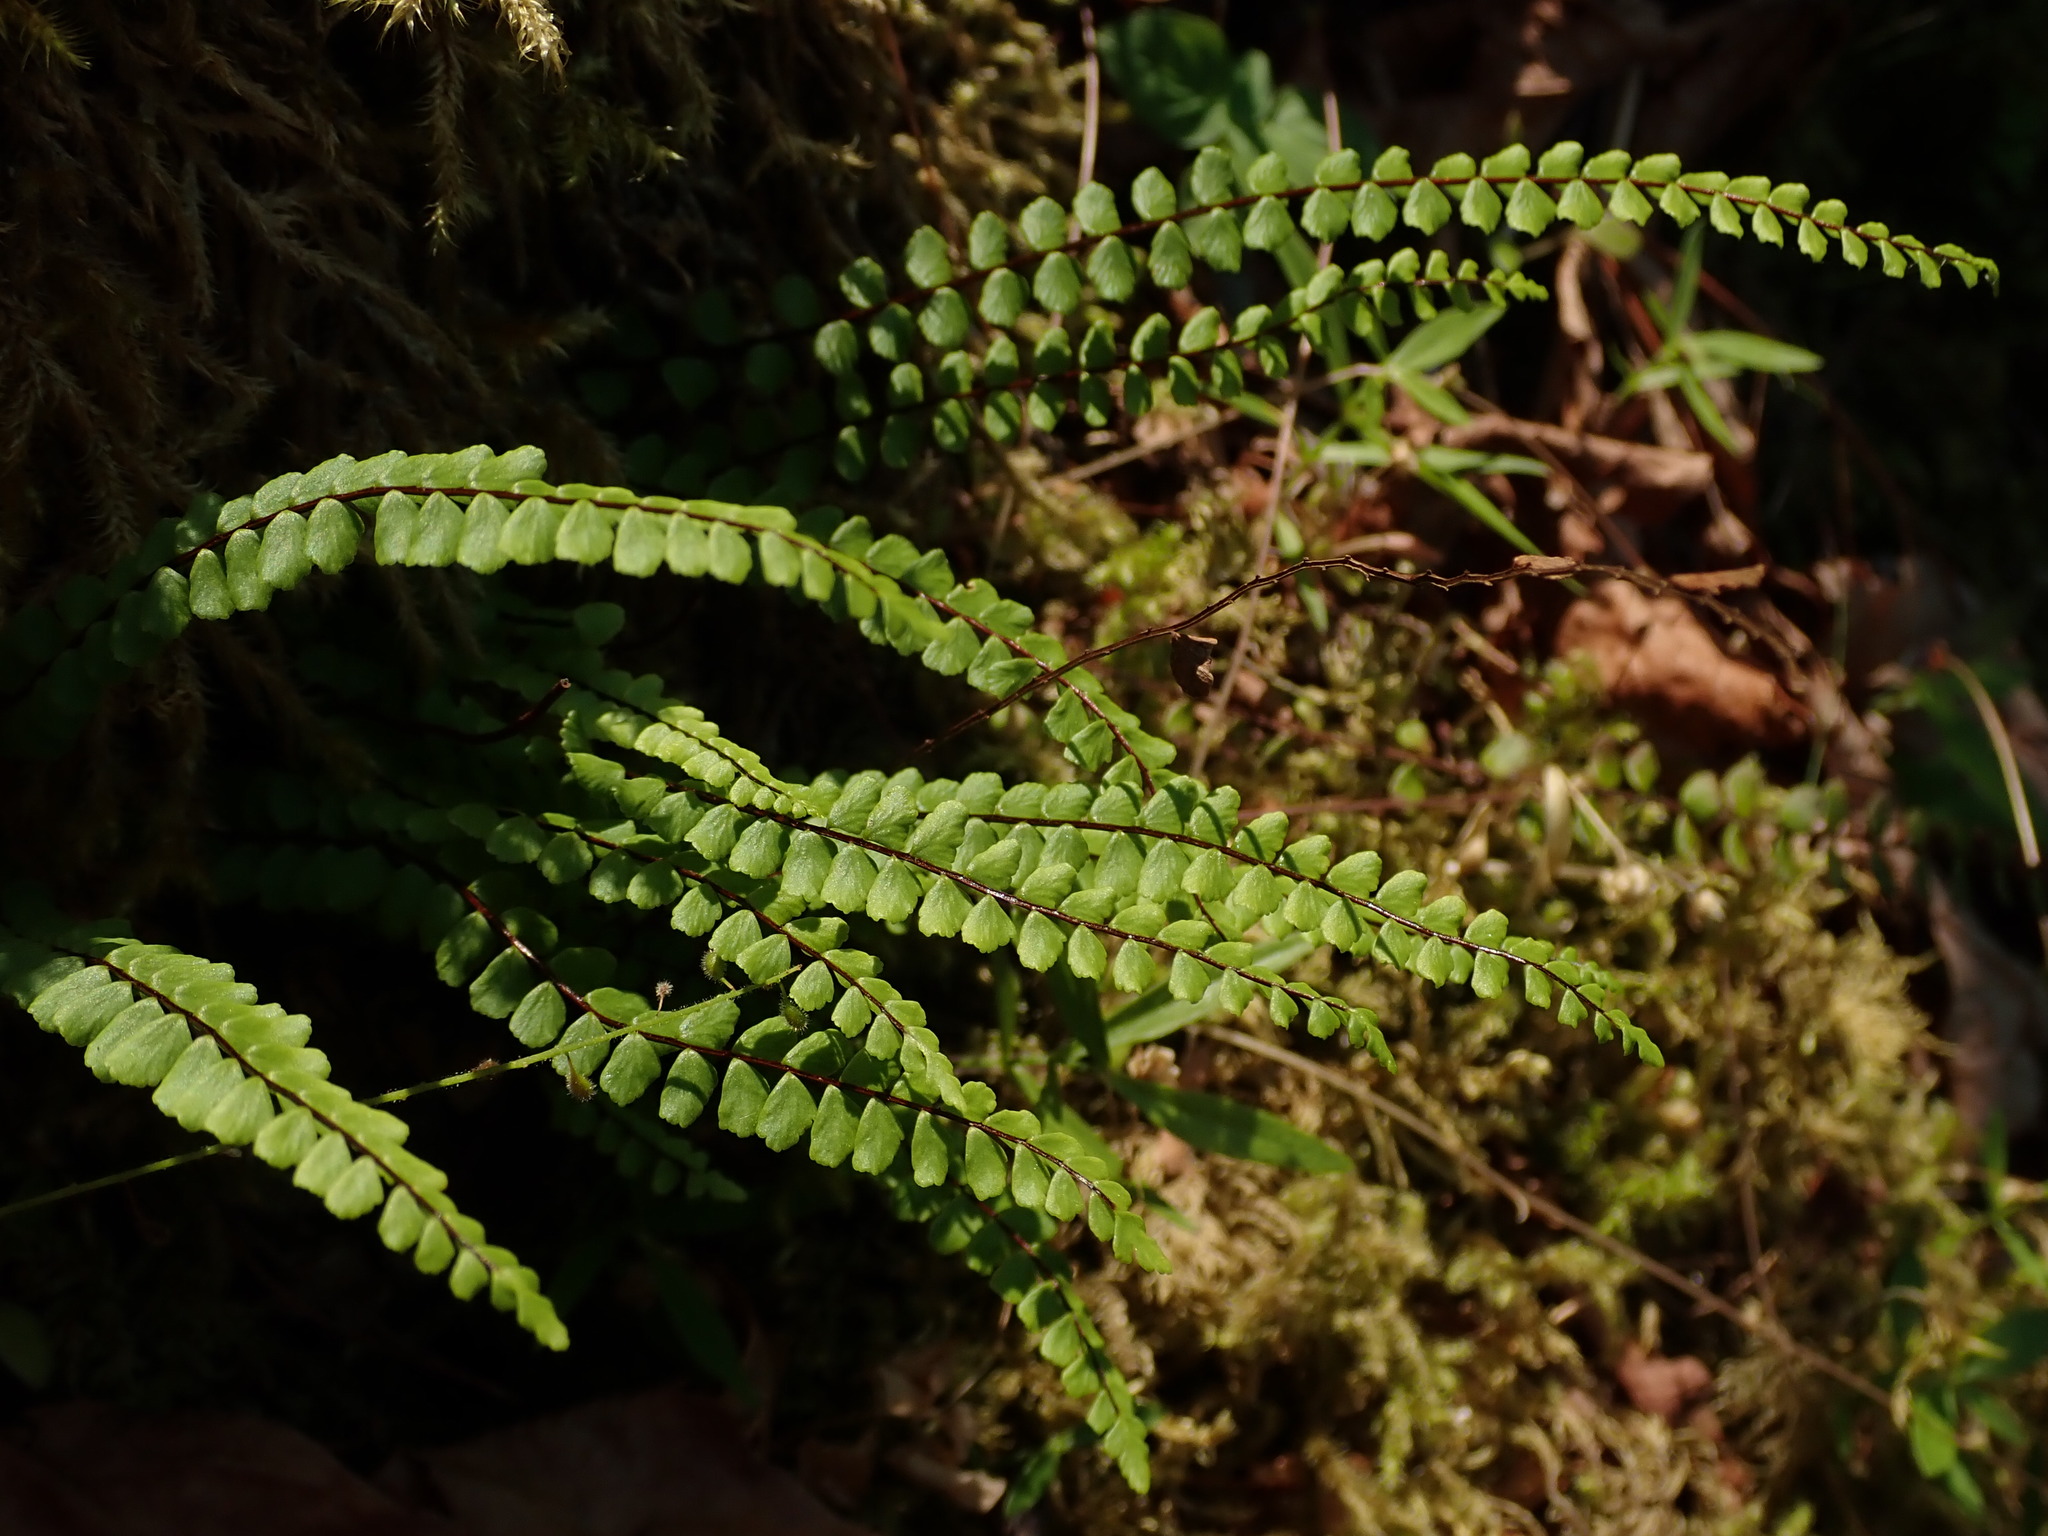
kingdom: Plantae
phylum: Tracheophyta
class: Polypodiopsida
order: Polypodiales
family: Aspleniaceae
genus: Asplenium
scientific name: Asplenium trichomanes
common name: Maidenhair spleenwort
